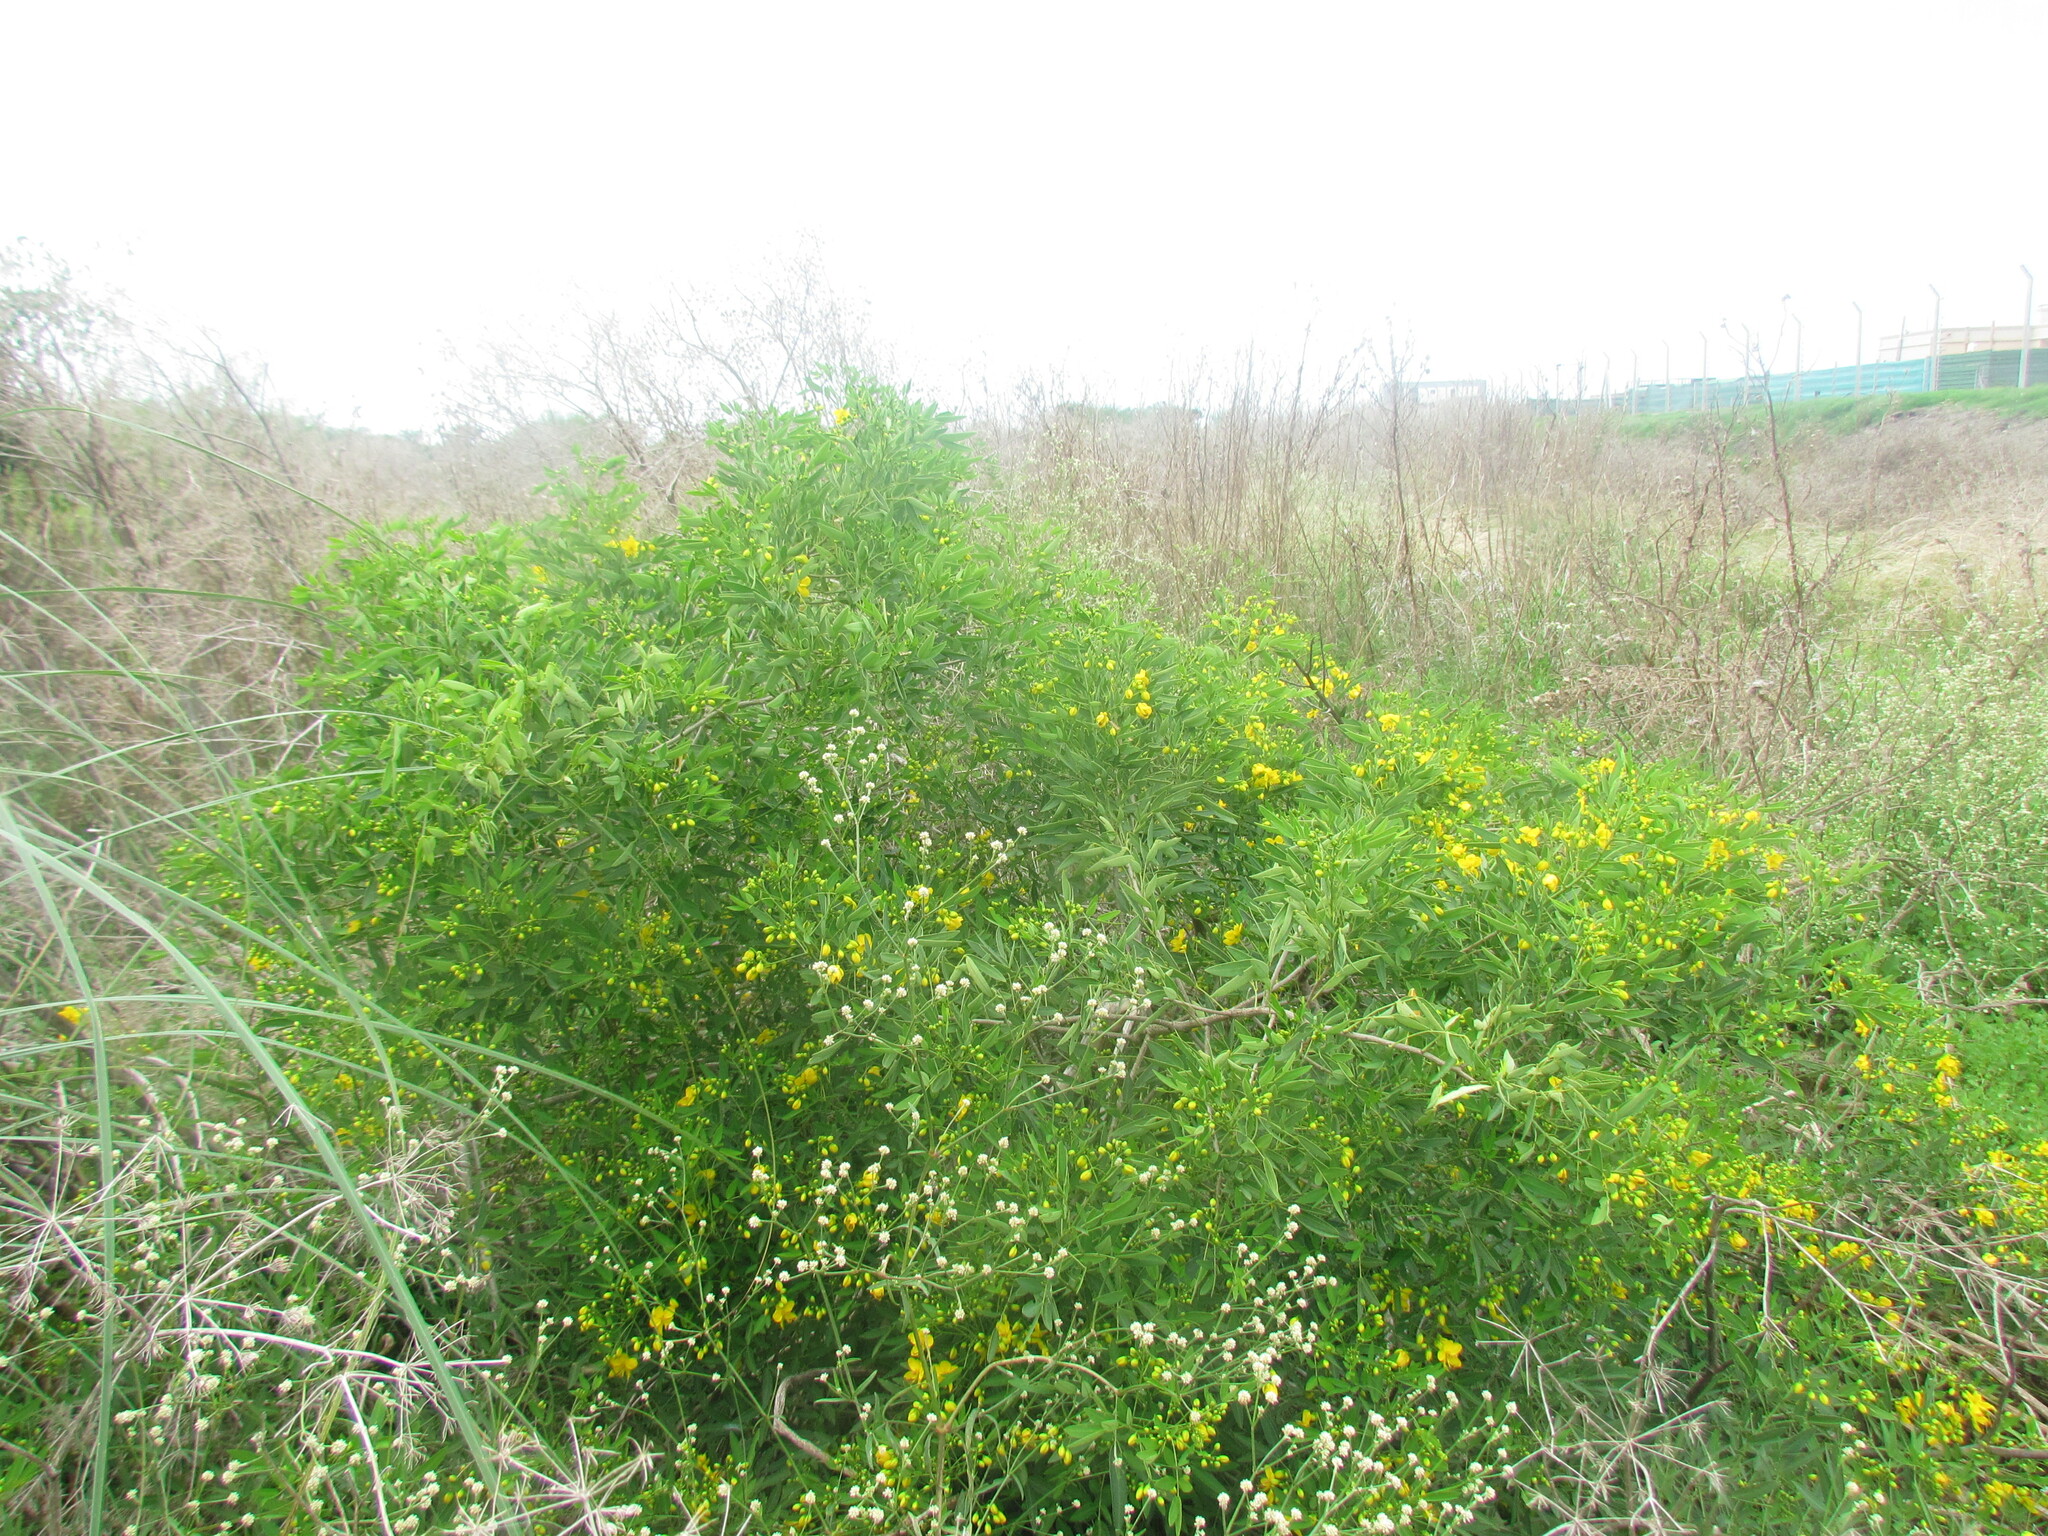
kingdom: Plantae
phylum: Tracheophyta
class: Magnoliopsida
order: Fabales
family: Fabaceae
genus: Senna
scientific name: Senna corymbosa
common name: Argentine senna
